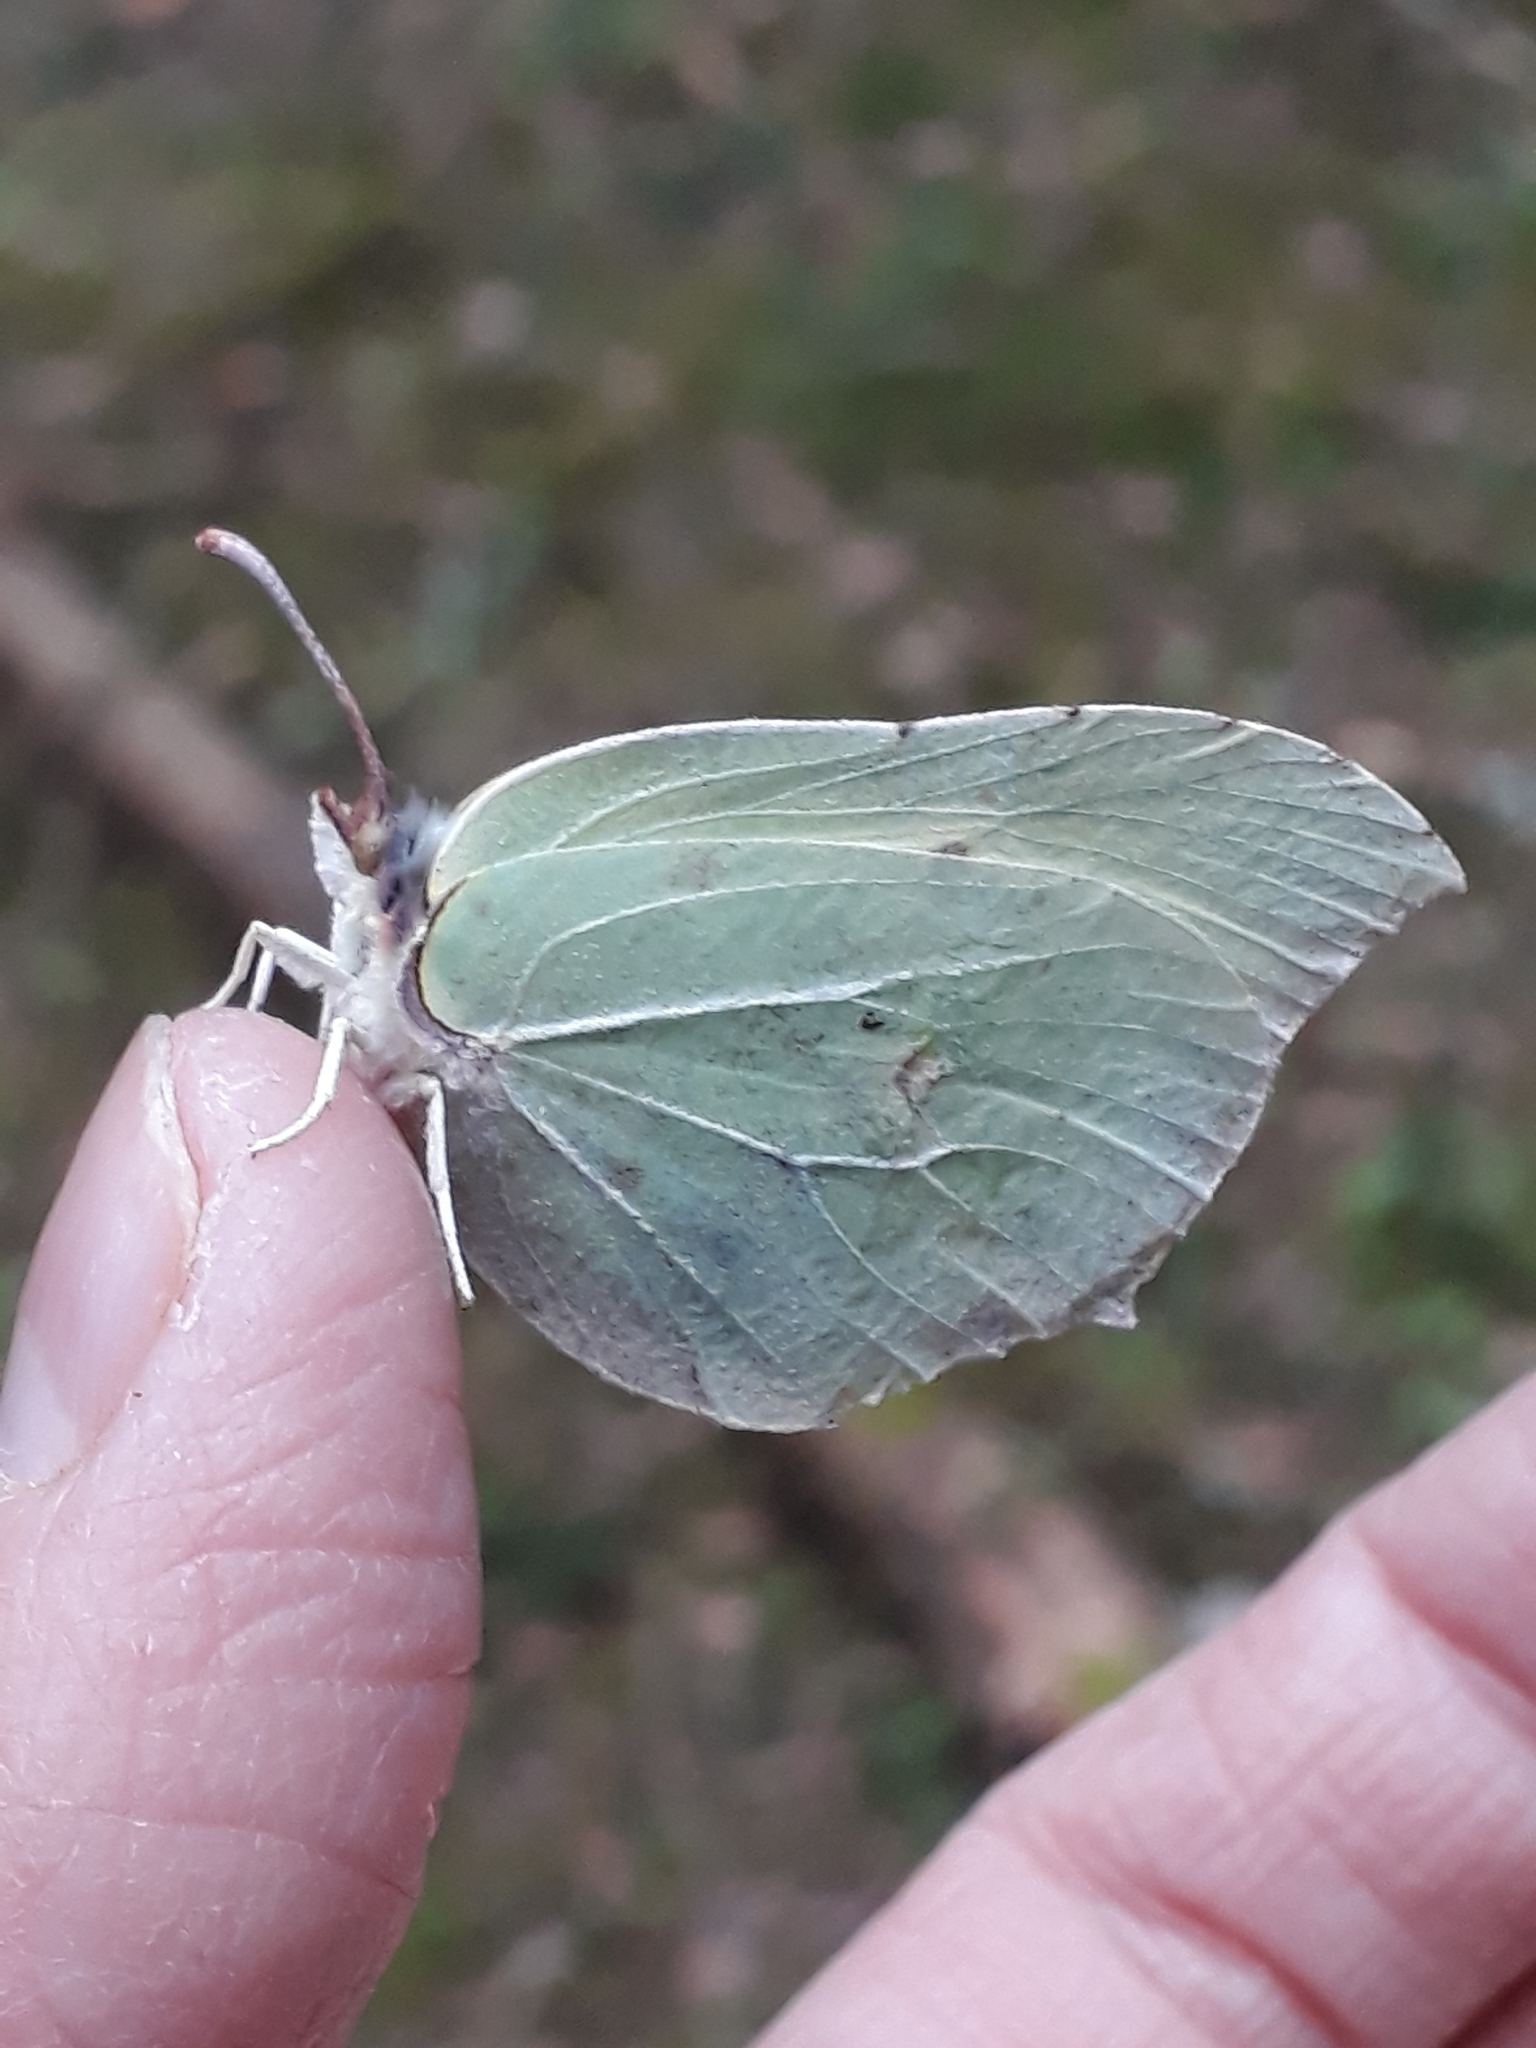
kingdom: Animalia
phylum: Arthropoda
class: Insecta
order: Lepidoptera
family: Pieridae
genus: Gonepteryx
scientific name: Gonepteryx rhamni
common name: Brimstone
